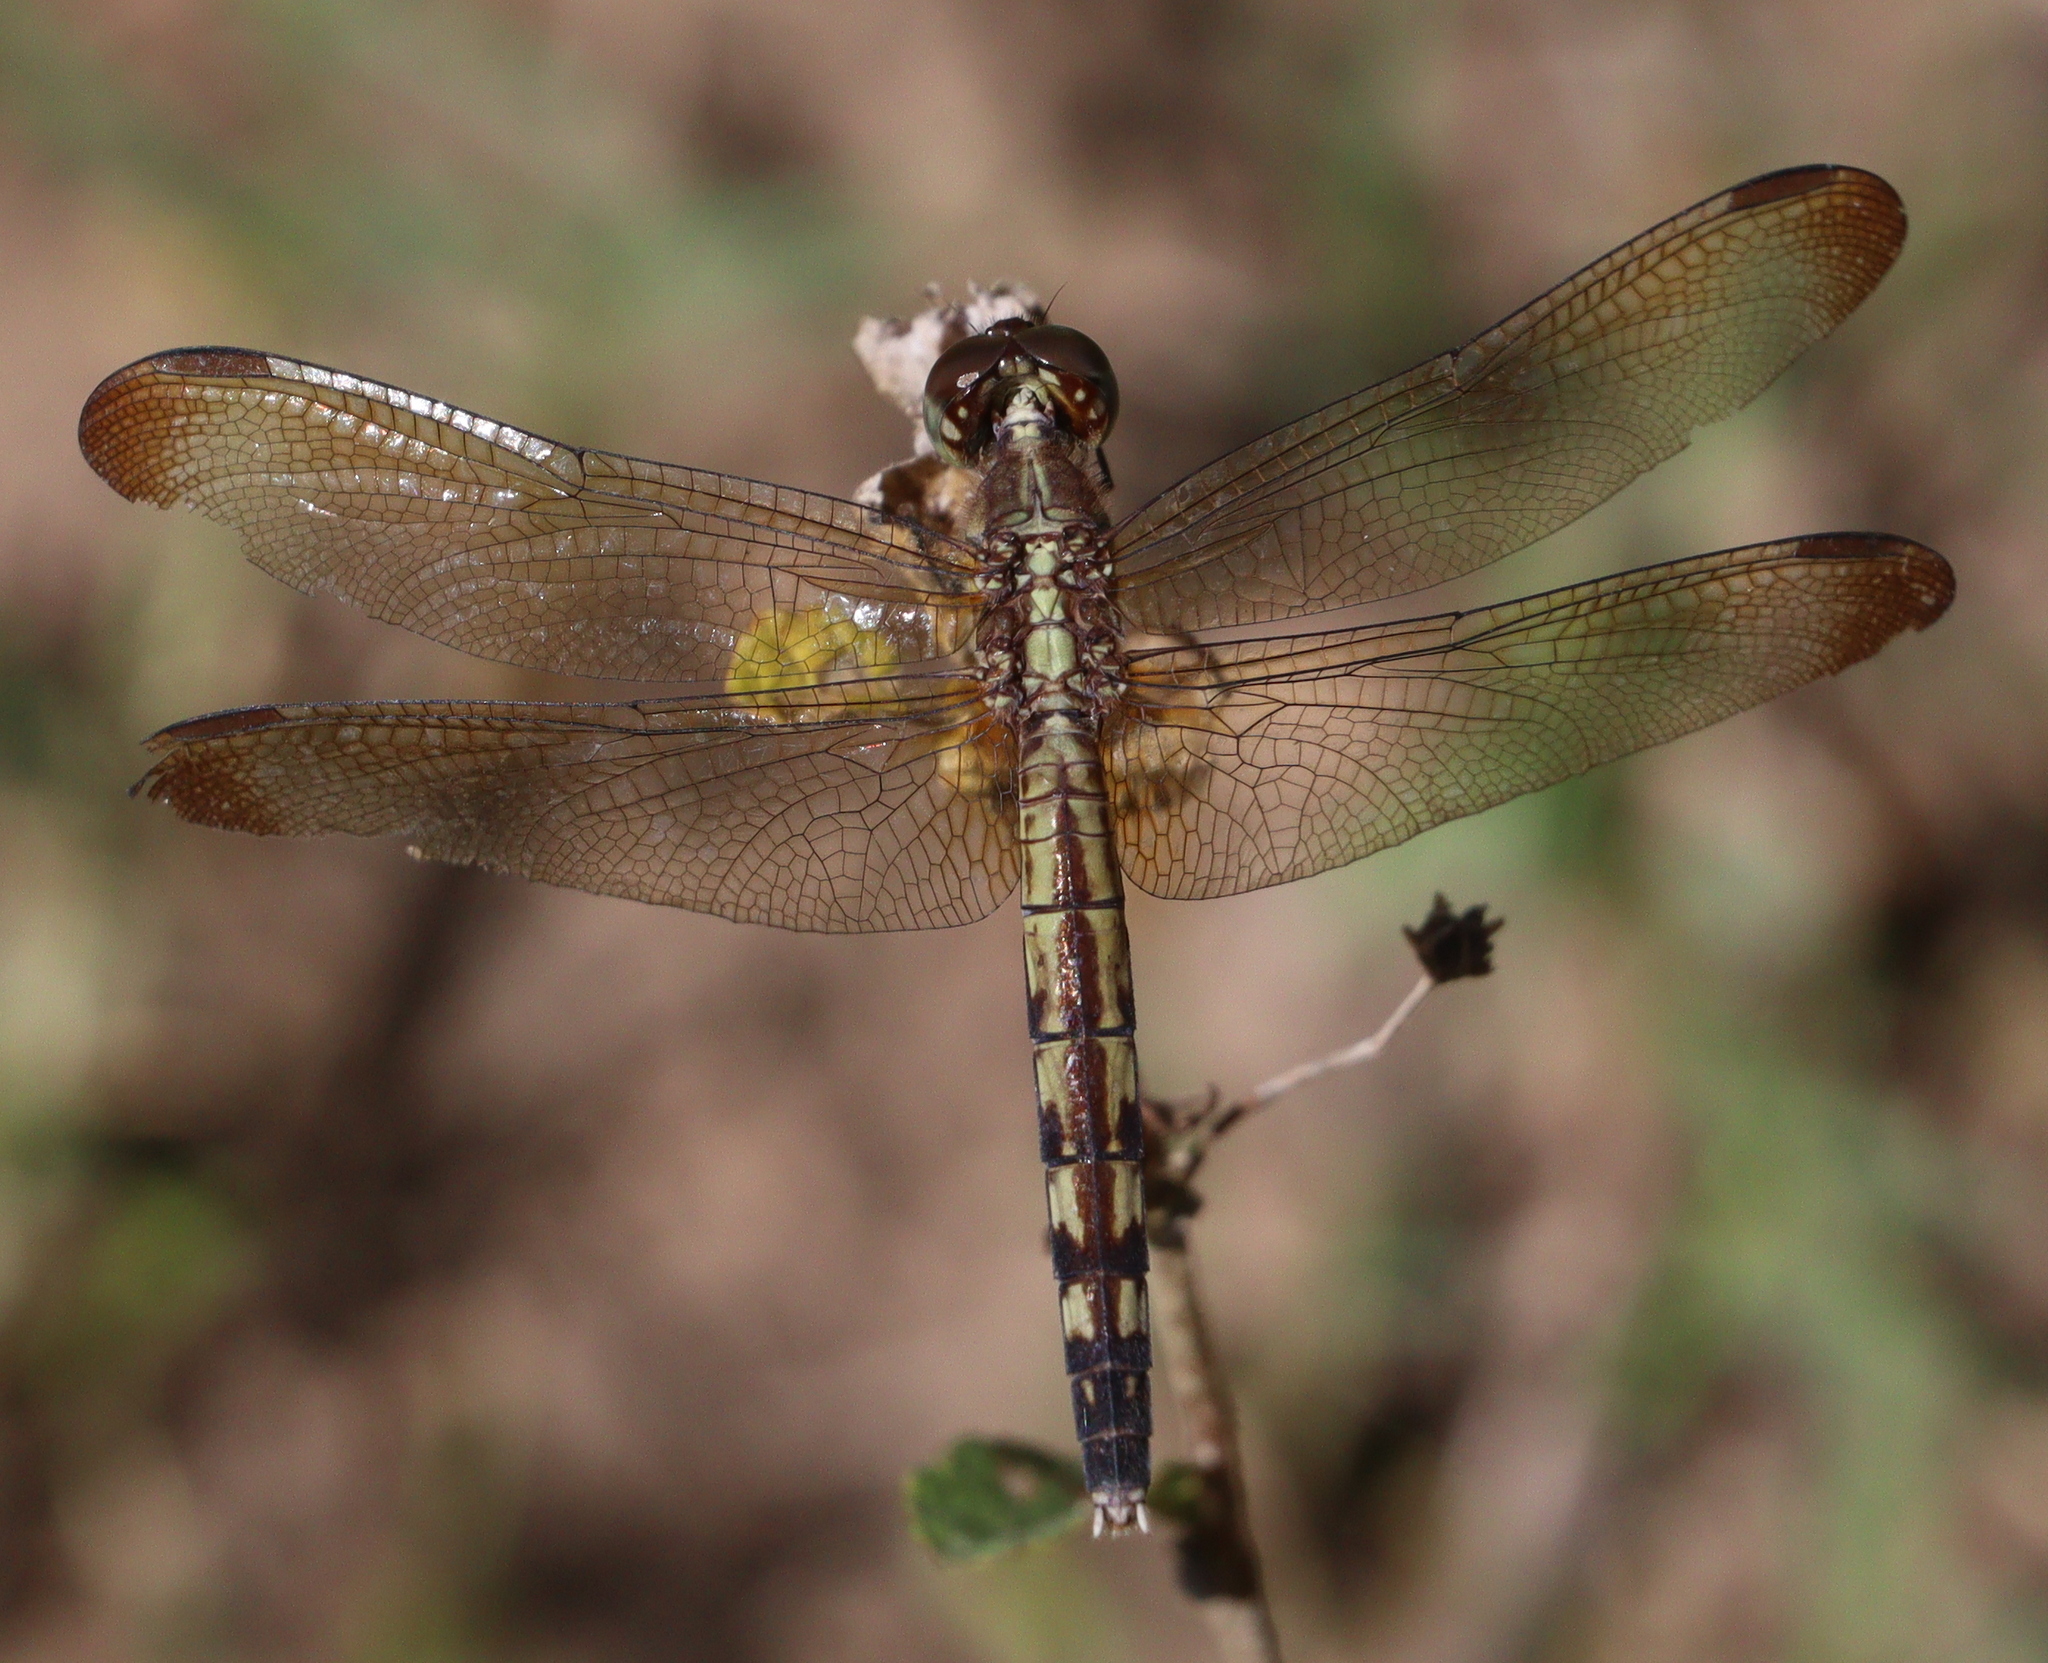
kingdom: Animalia
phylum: Arthropoda
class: Insecta
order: Odonata
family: Libellulidae
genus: Erythrodiplax
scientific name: Erythrodiplax umbrata
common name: Band-winged dragonlet
